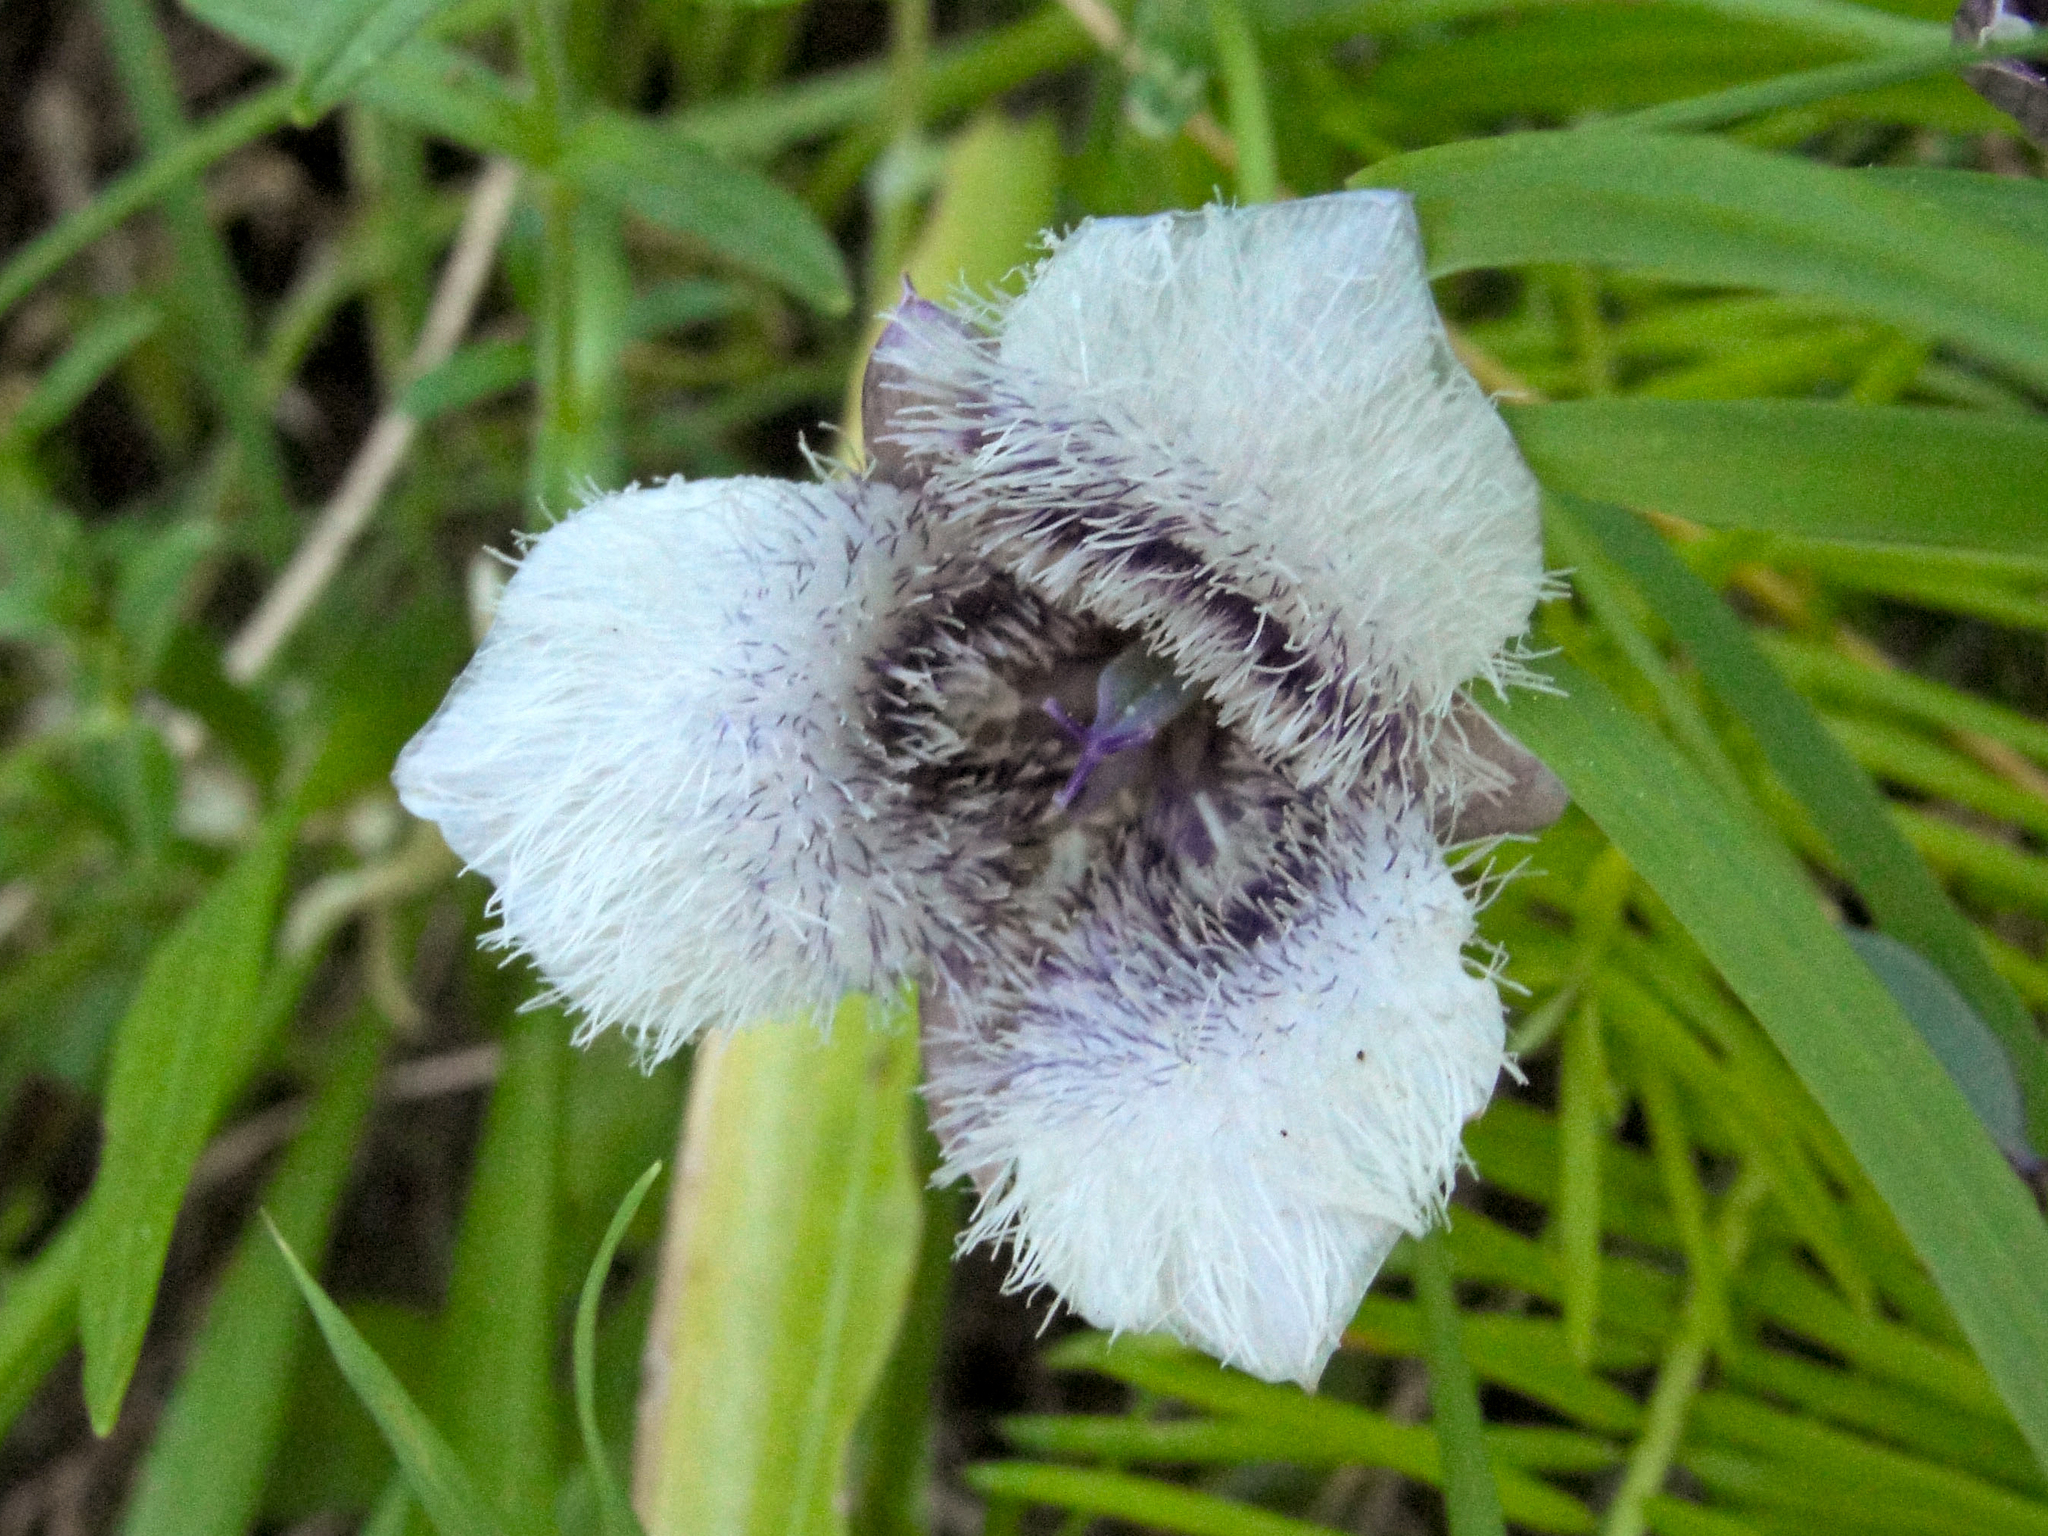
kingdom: Plantae
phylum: Tracheophyta
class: Liliopsida
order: Liliales
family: Liliaceae
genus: Calochortus
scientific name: Calochortus tolmiei
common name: Pussy-ears
